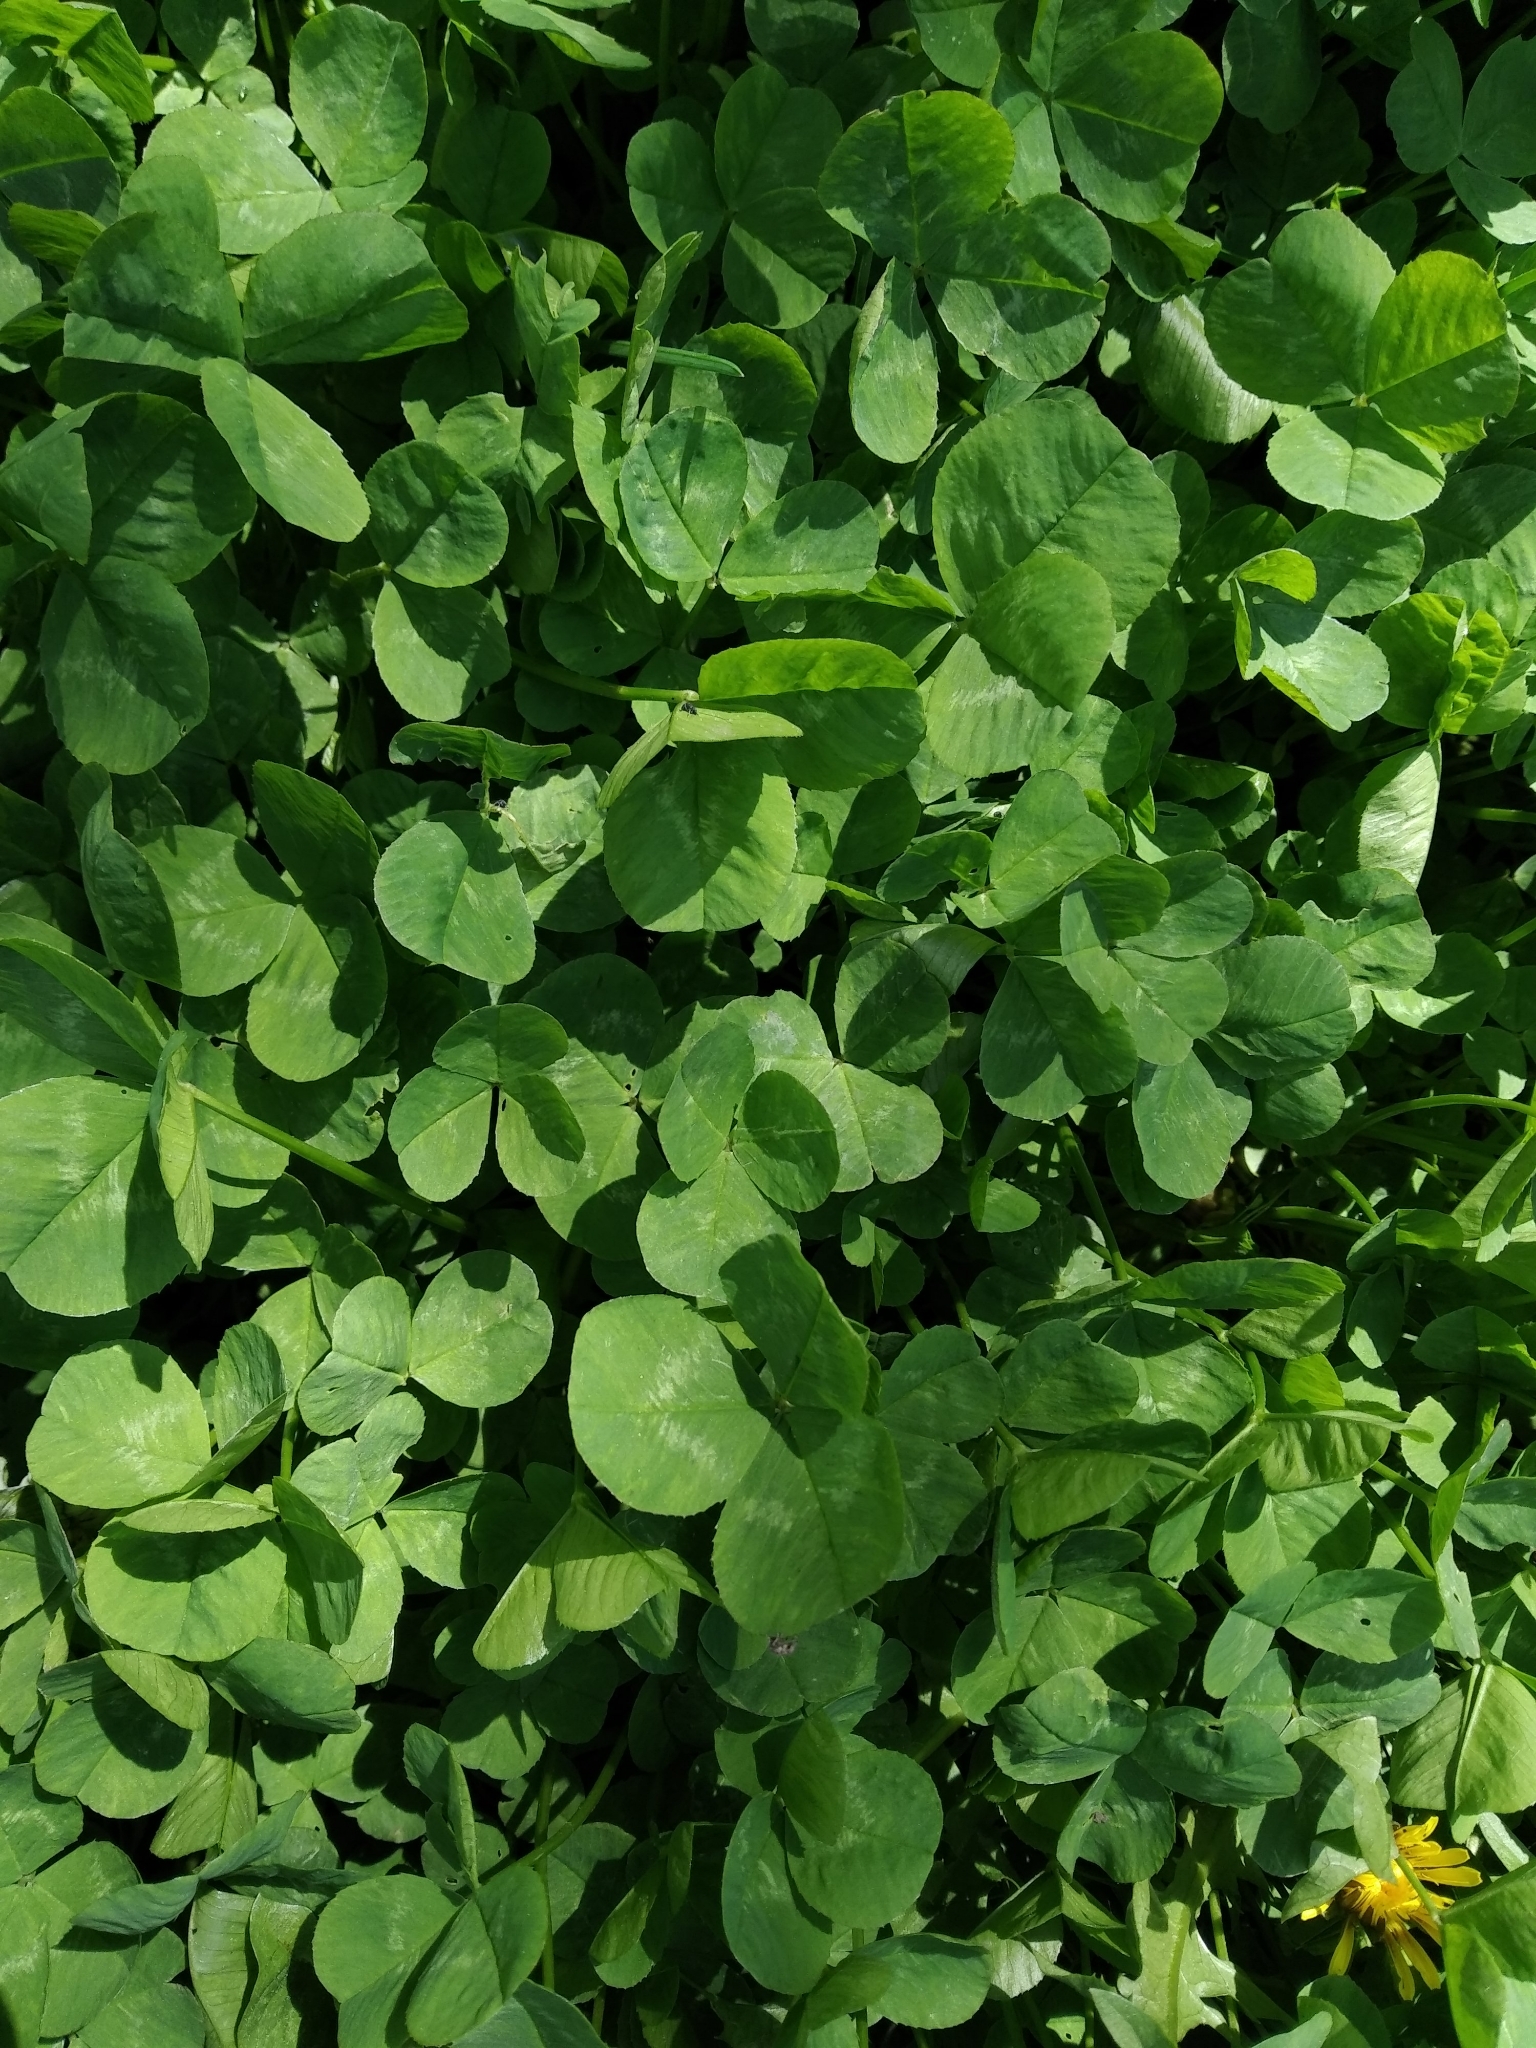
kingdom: Plantae
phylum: Tracheophyta
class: Magnoliopsida
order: Fabales
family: Fabaceae
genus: Trifolium
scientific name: Trifolium repens
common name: White clover
